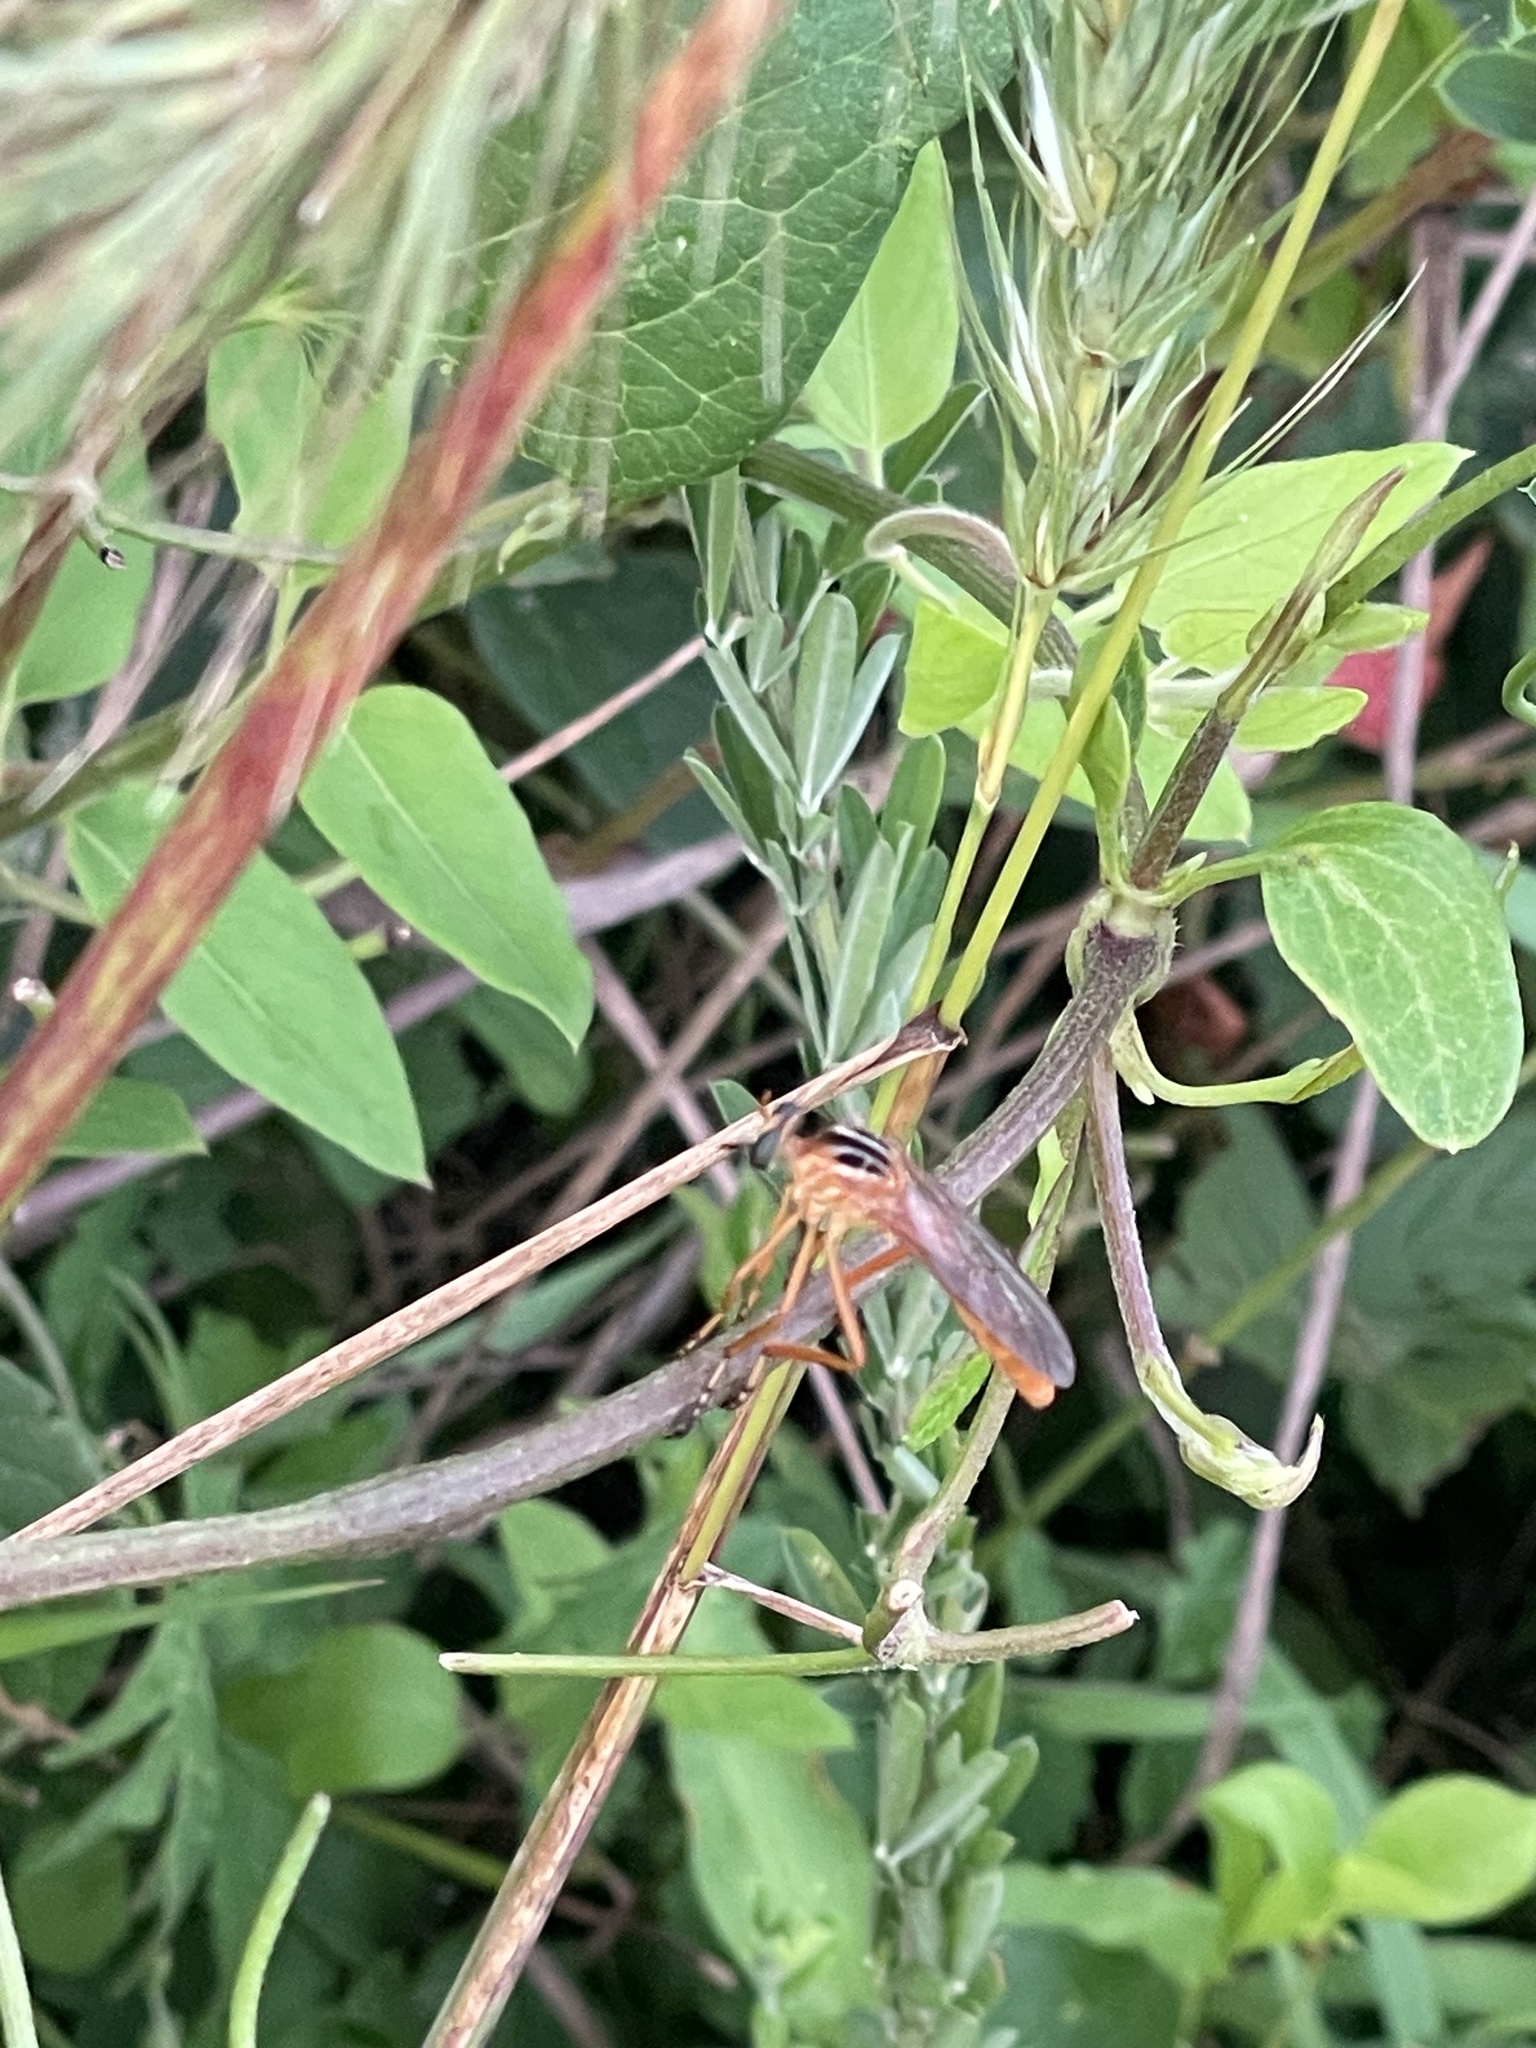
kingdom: Animalia
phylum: Arthropoda
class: Insecta
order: Diptera
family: Asilidae
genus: Diogmites
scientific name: Diogmites neoternatus
